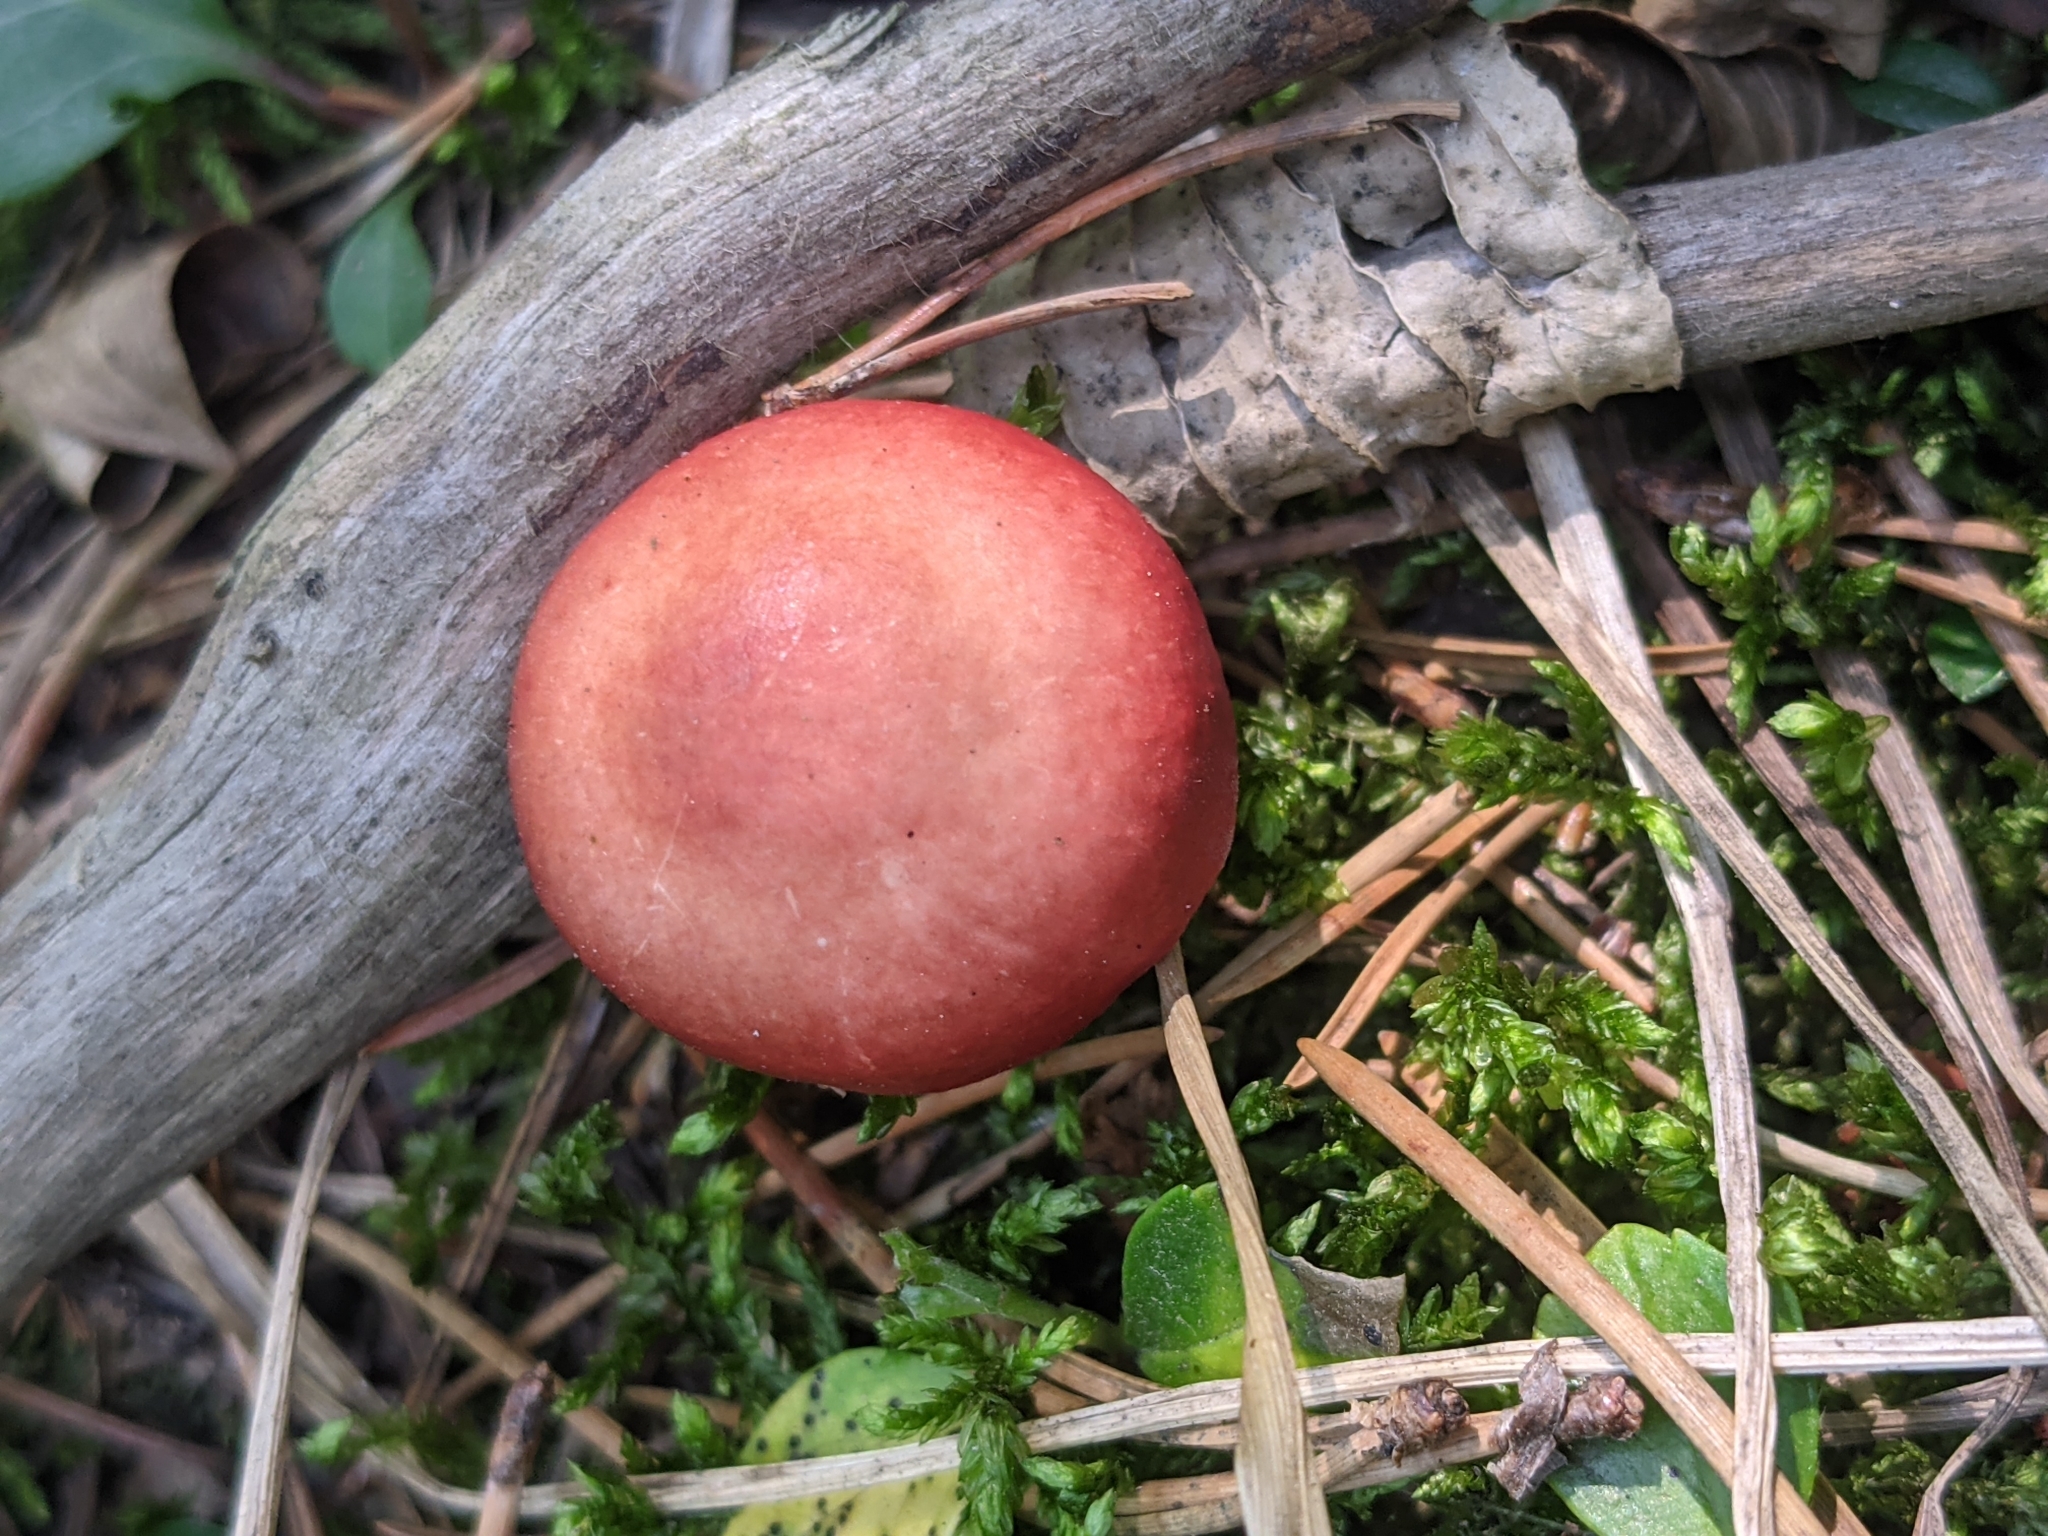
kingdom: Fungi
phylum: Basidiomycota
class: Agaricomycetes
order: Russulales
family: Russulaceae
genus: Russula
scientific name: Russula sanguinea
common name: Bloody brittlegill
